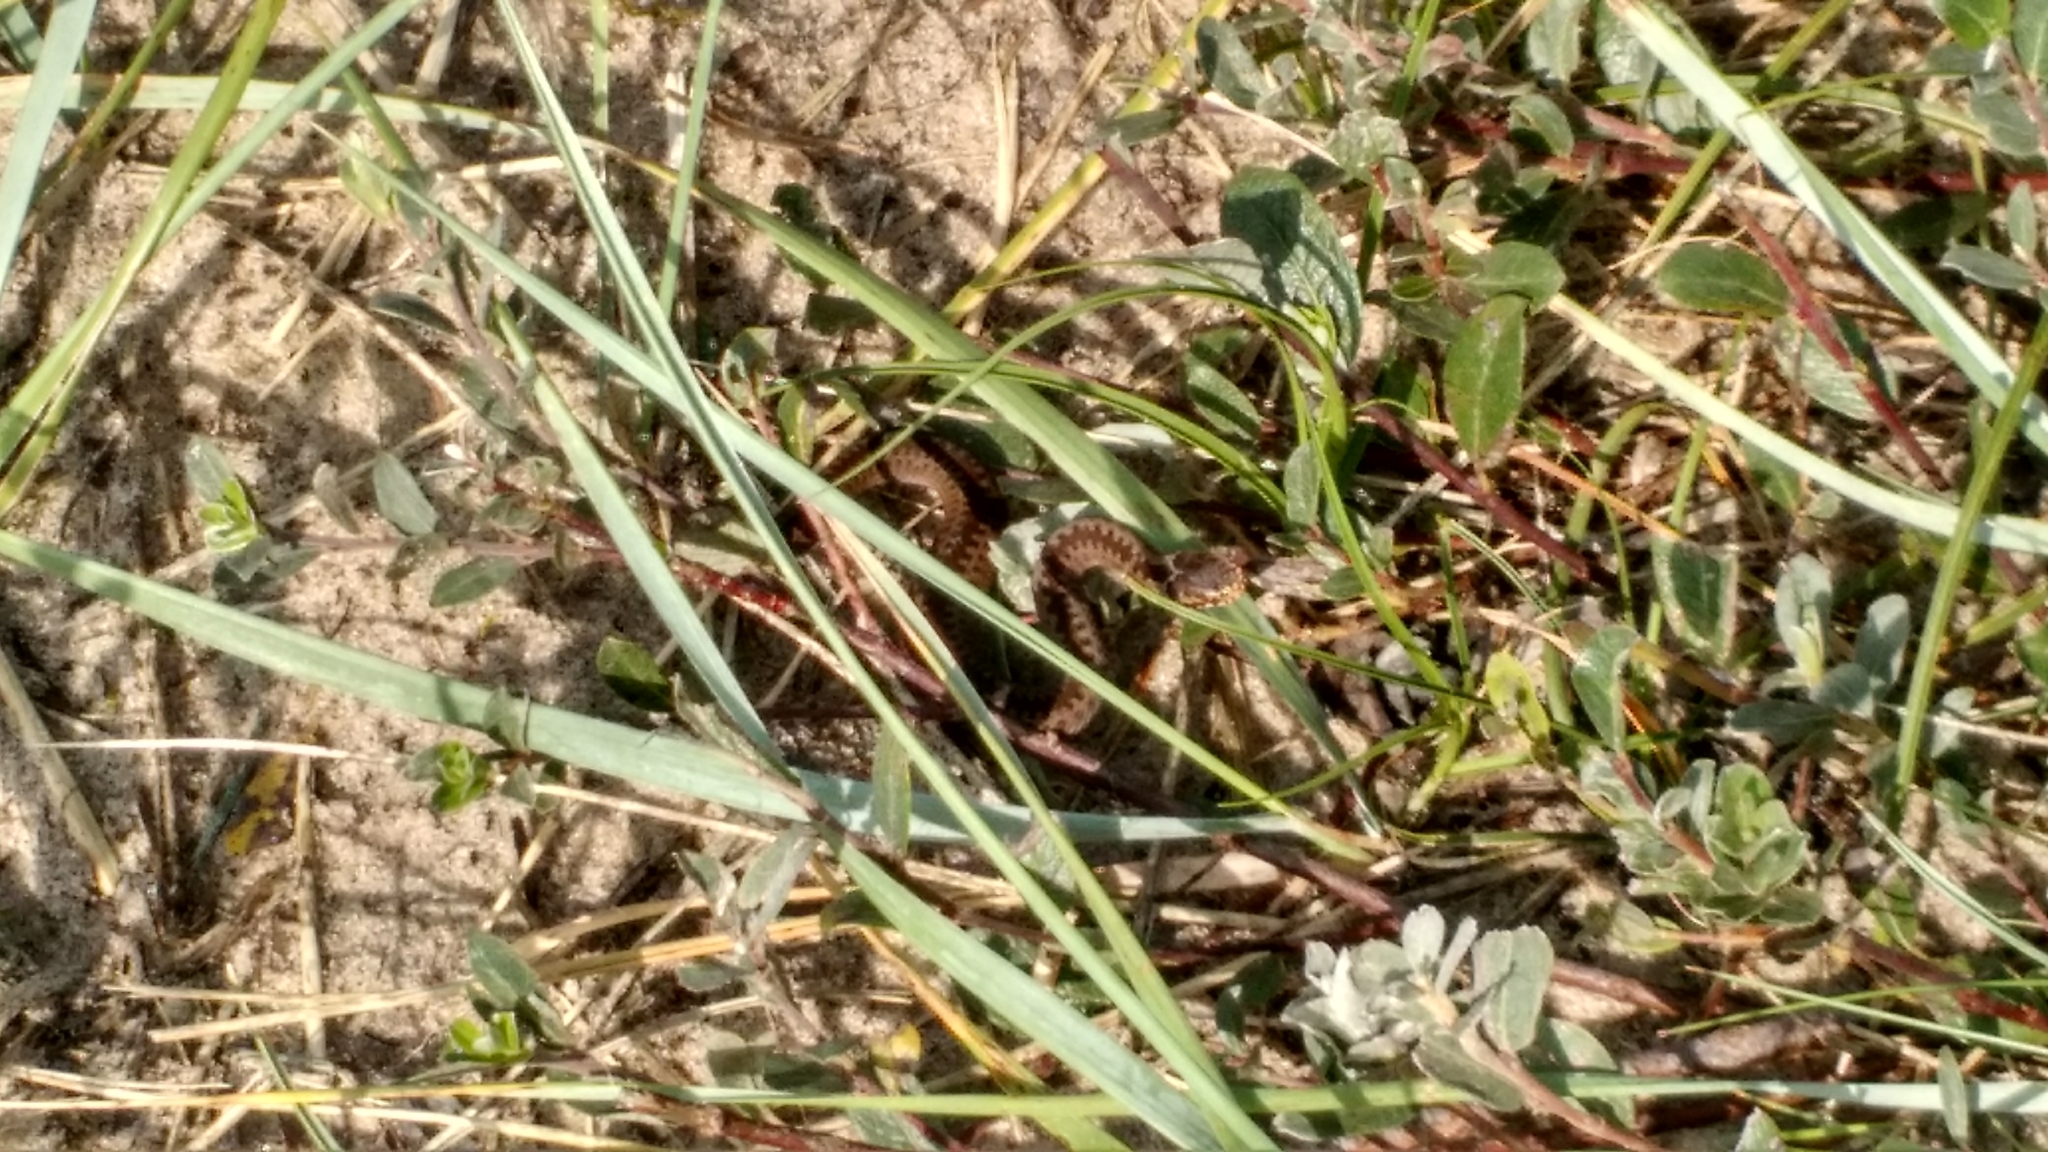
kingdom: Animalia
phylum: Chordata
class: Squamata
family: Viperidae
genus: Vipera
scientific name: Vipera berus
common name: Adder
